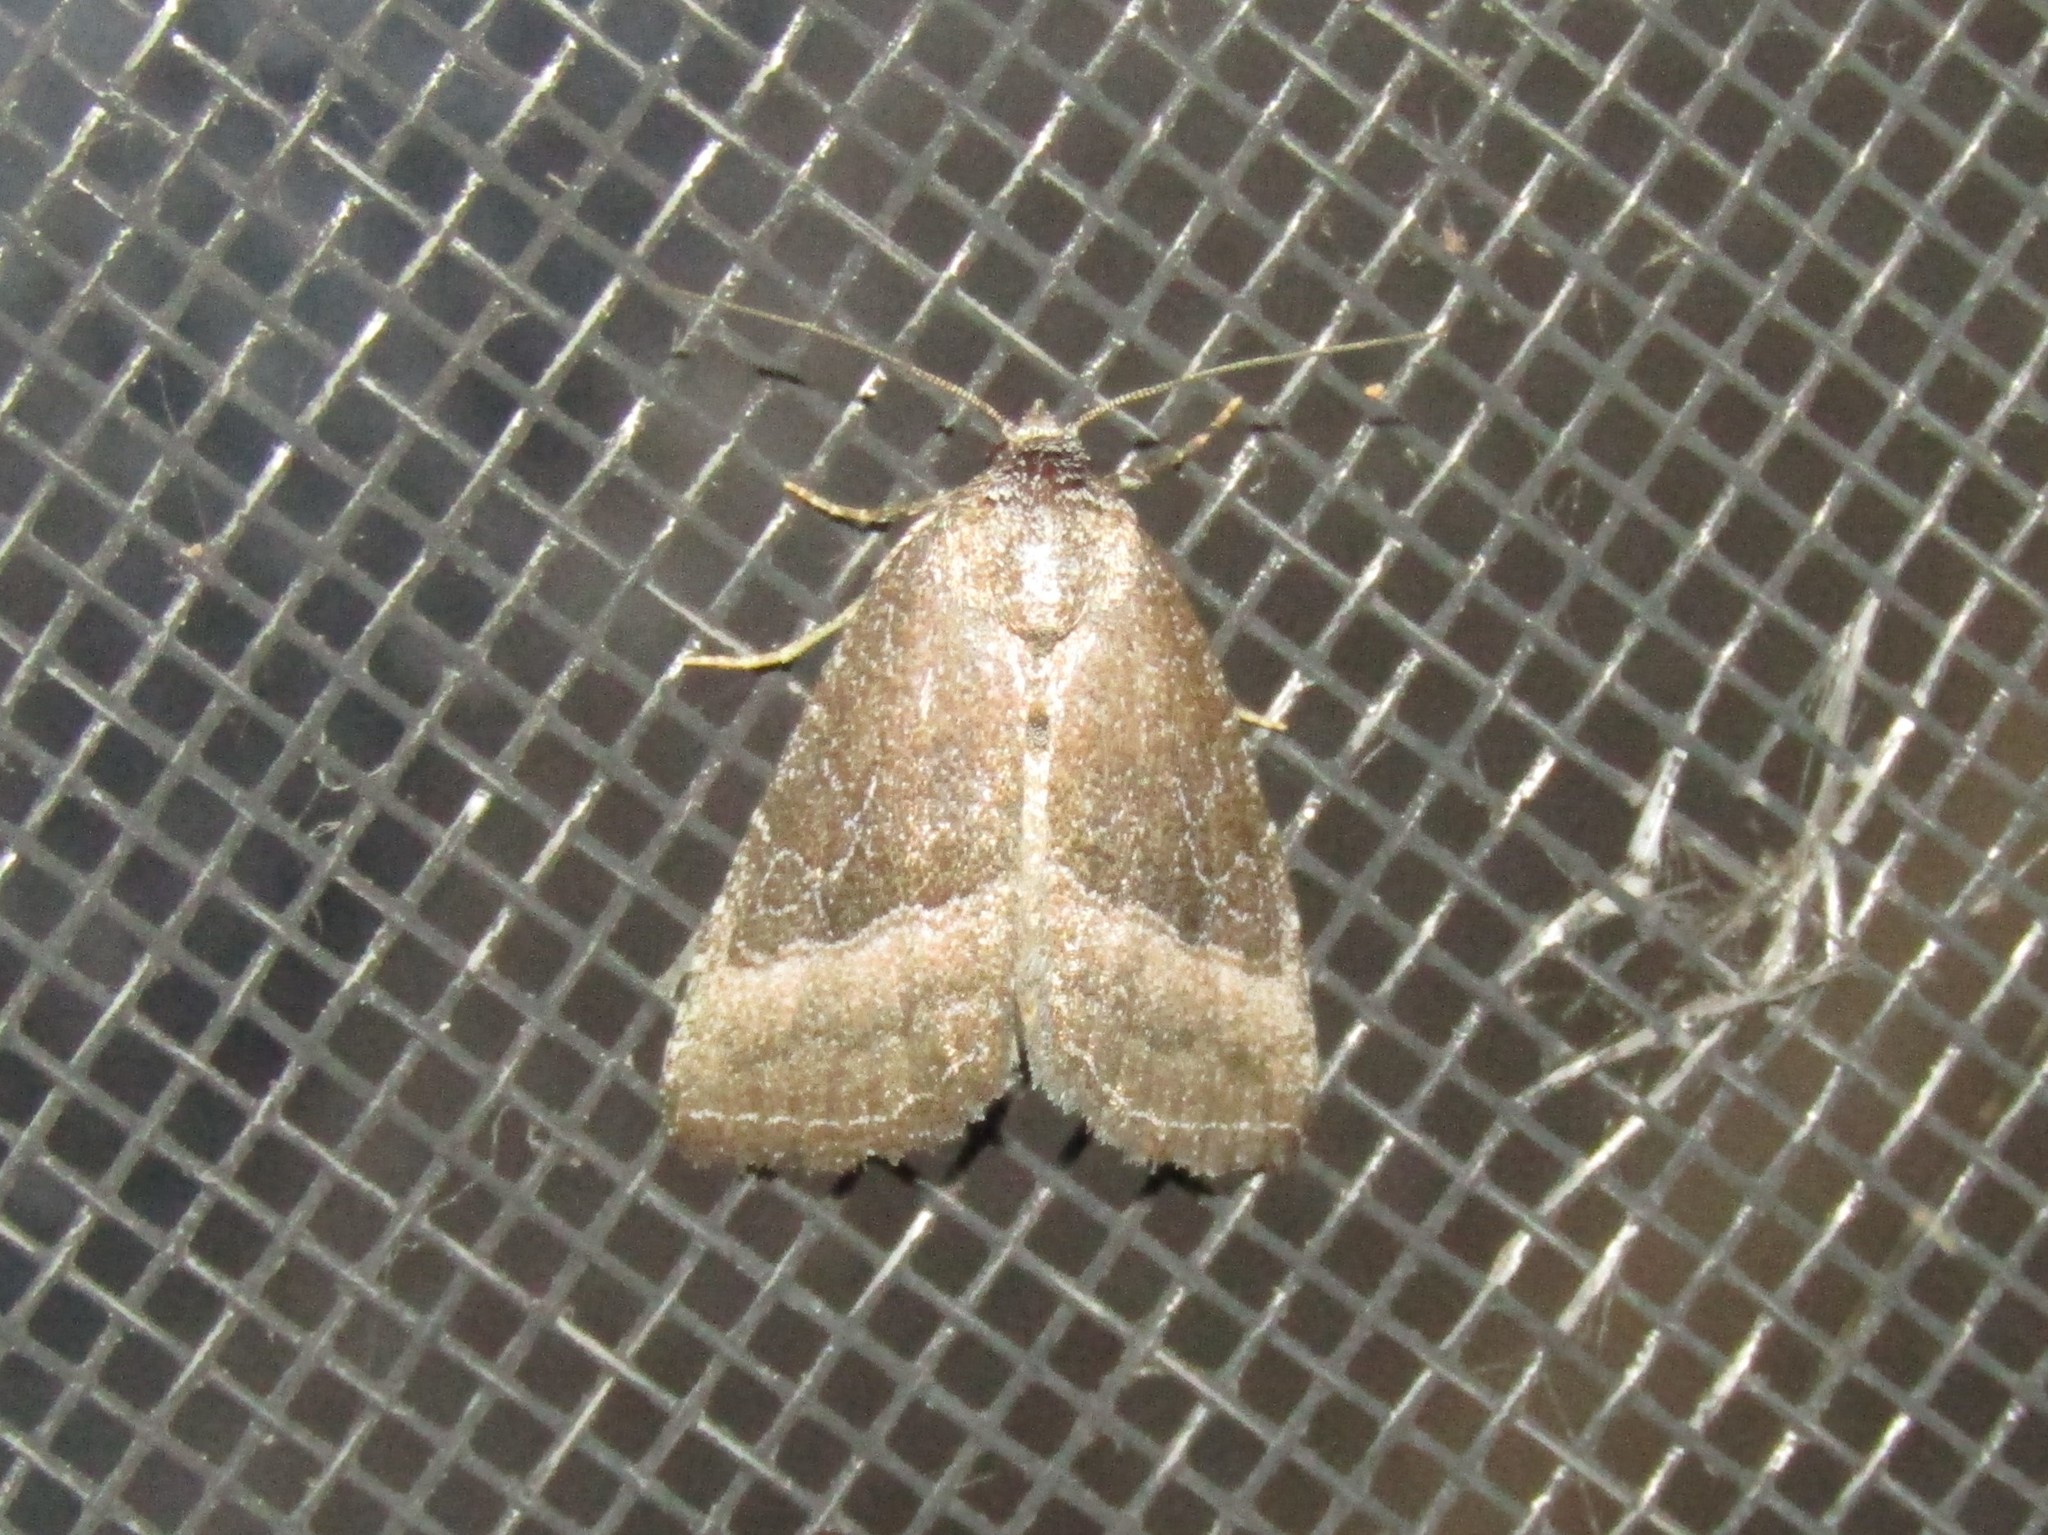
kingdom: Animalia
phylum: Arthropoda
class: Insecta
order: Lepidoptera
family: Noctuidae
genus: Ogdoconta
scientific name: Ogdoconta cinereola
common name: Common pinkband
